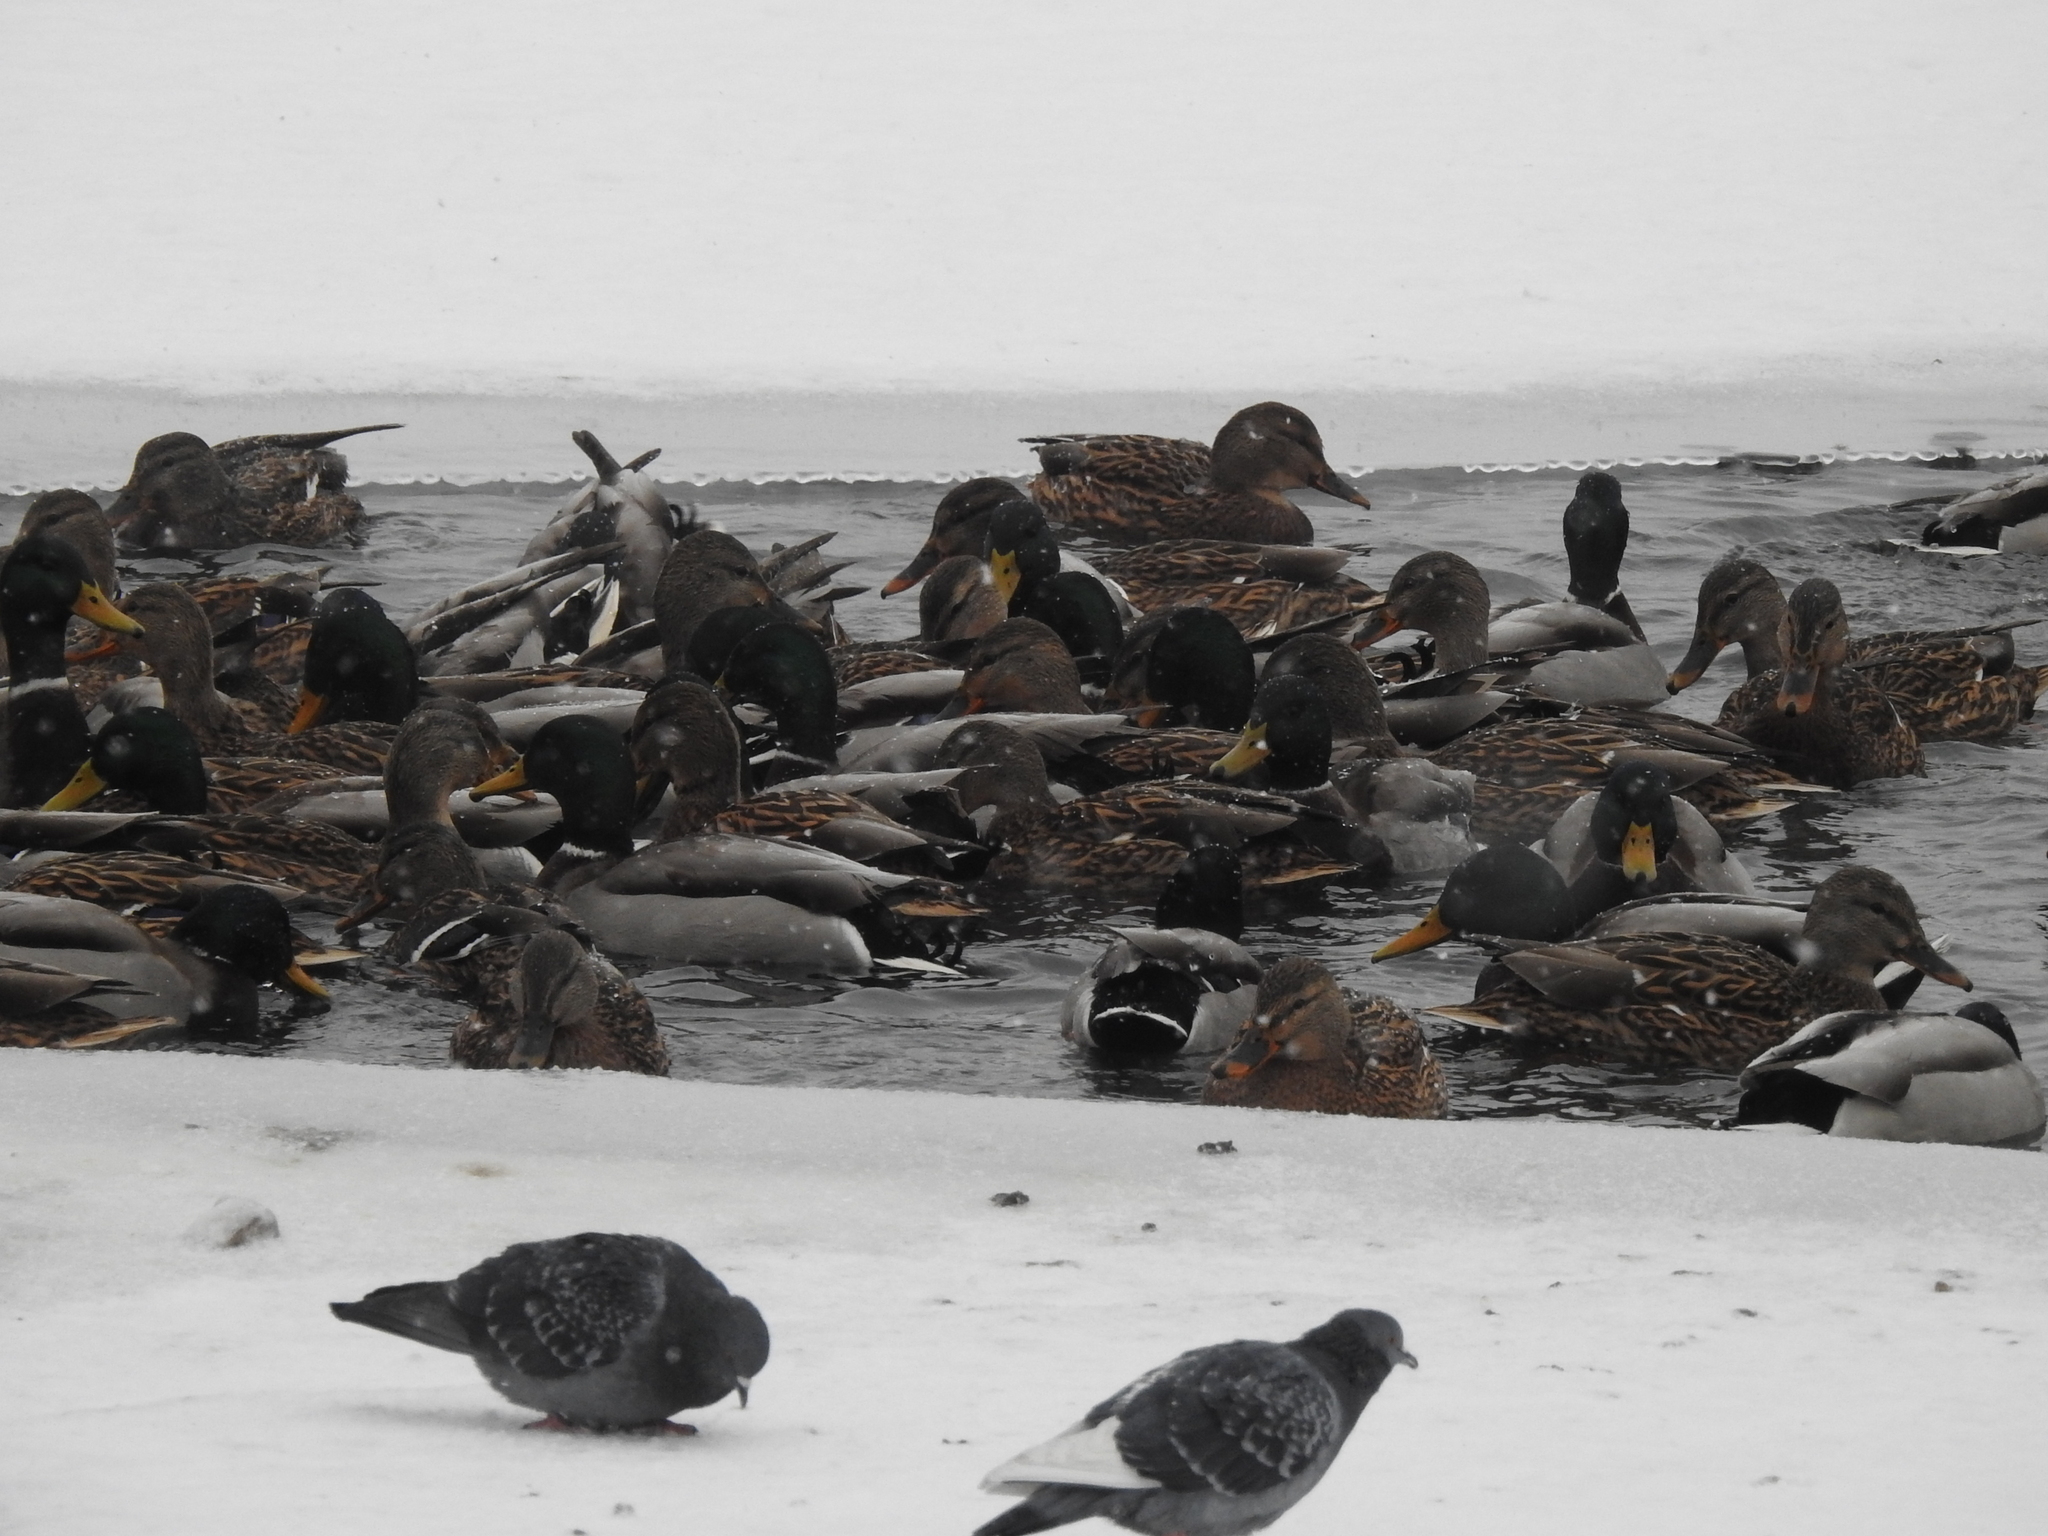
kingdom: Animalia
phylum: Chordata
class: Aves
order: Anseriformes
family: Anatidae
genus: Anas
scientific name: Anas platyrhynchos
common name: Mallard
